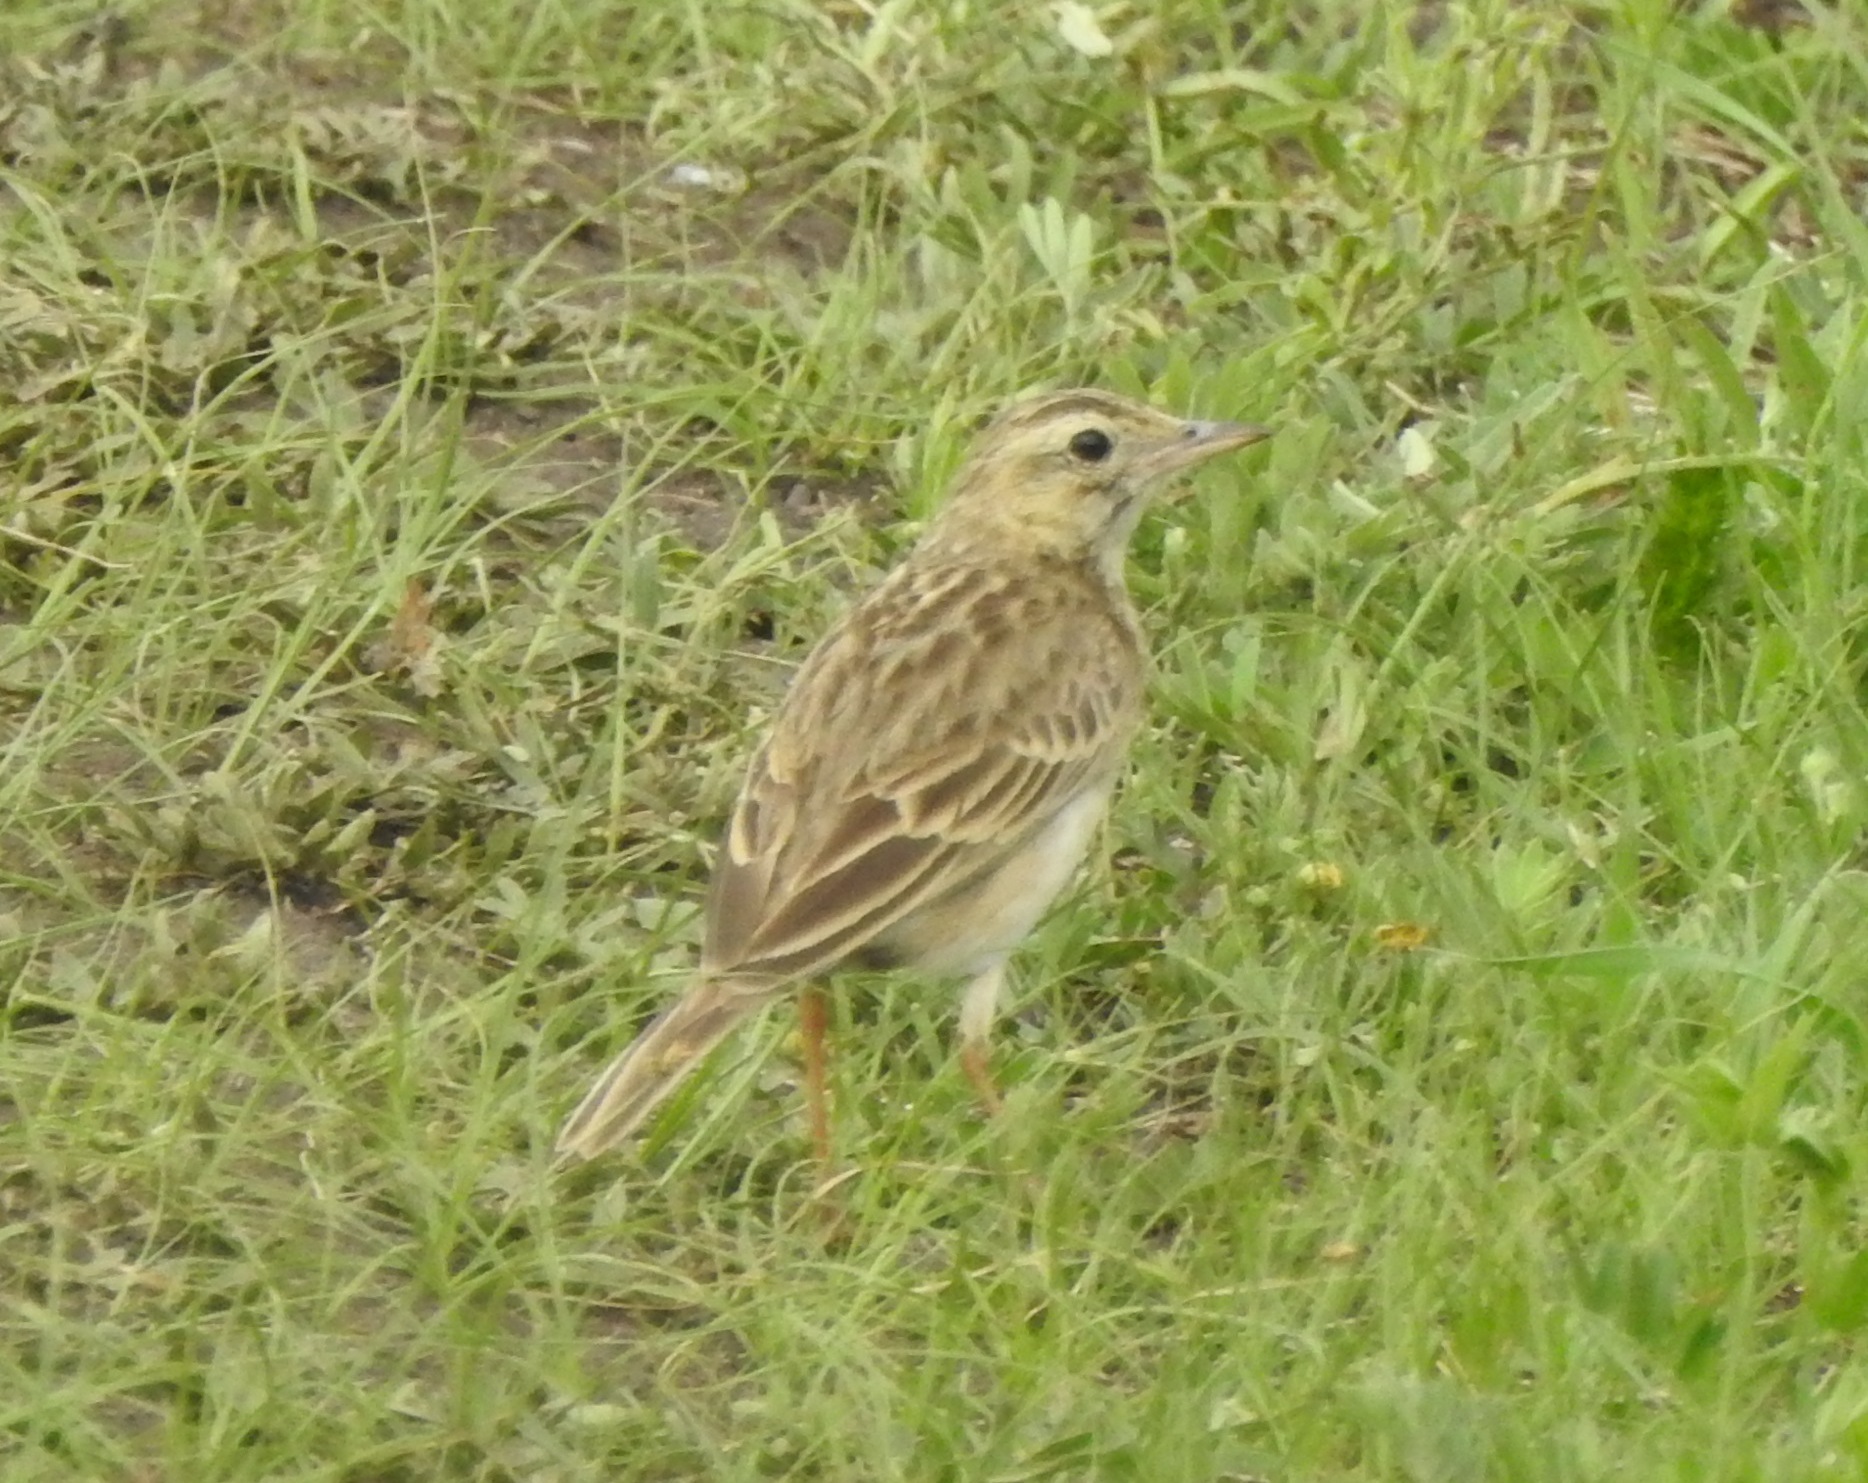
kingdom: Animalia
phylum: Chordata
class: Aves
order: Passeriformes
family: Motacillidae
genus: Anthus
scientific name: Anthus richardi
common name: Richard's pipit
